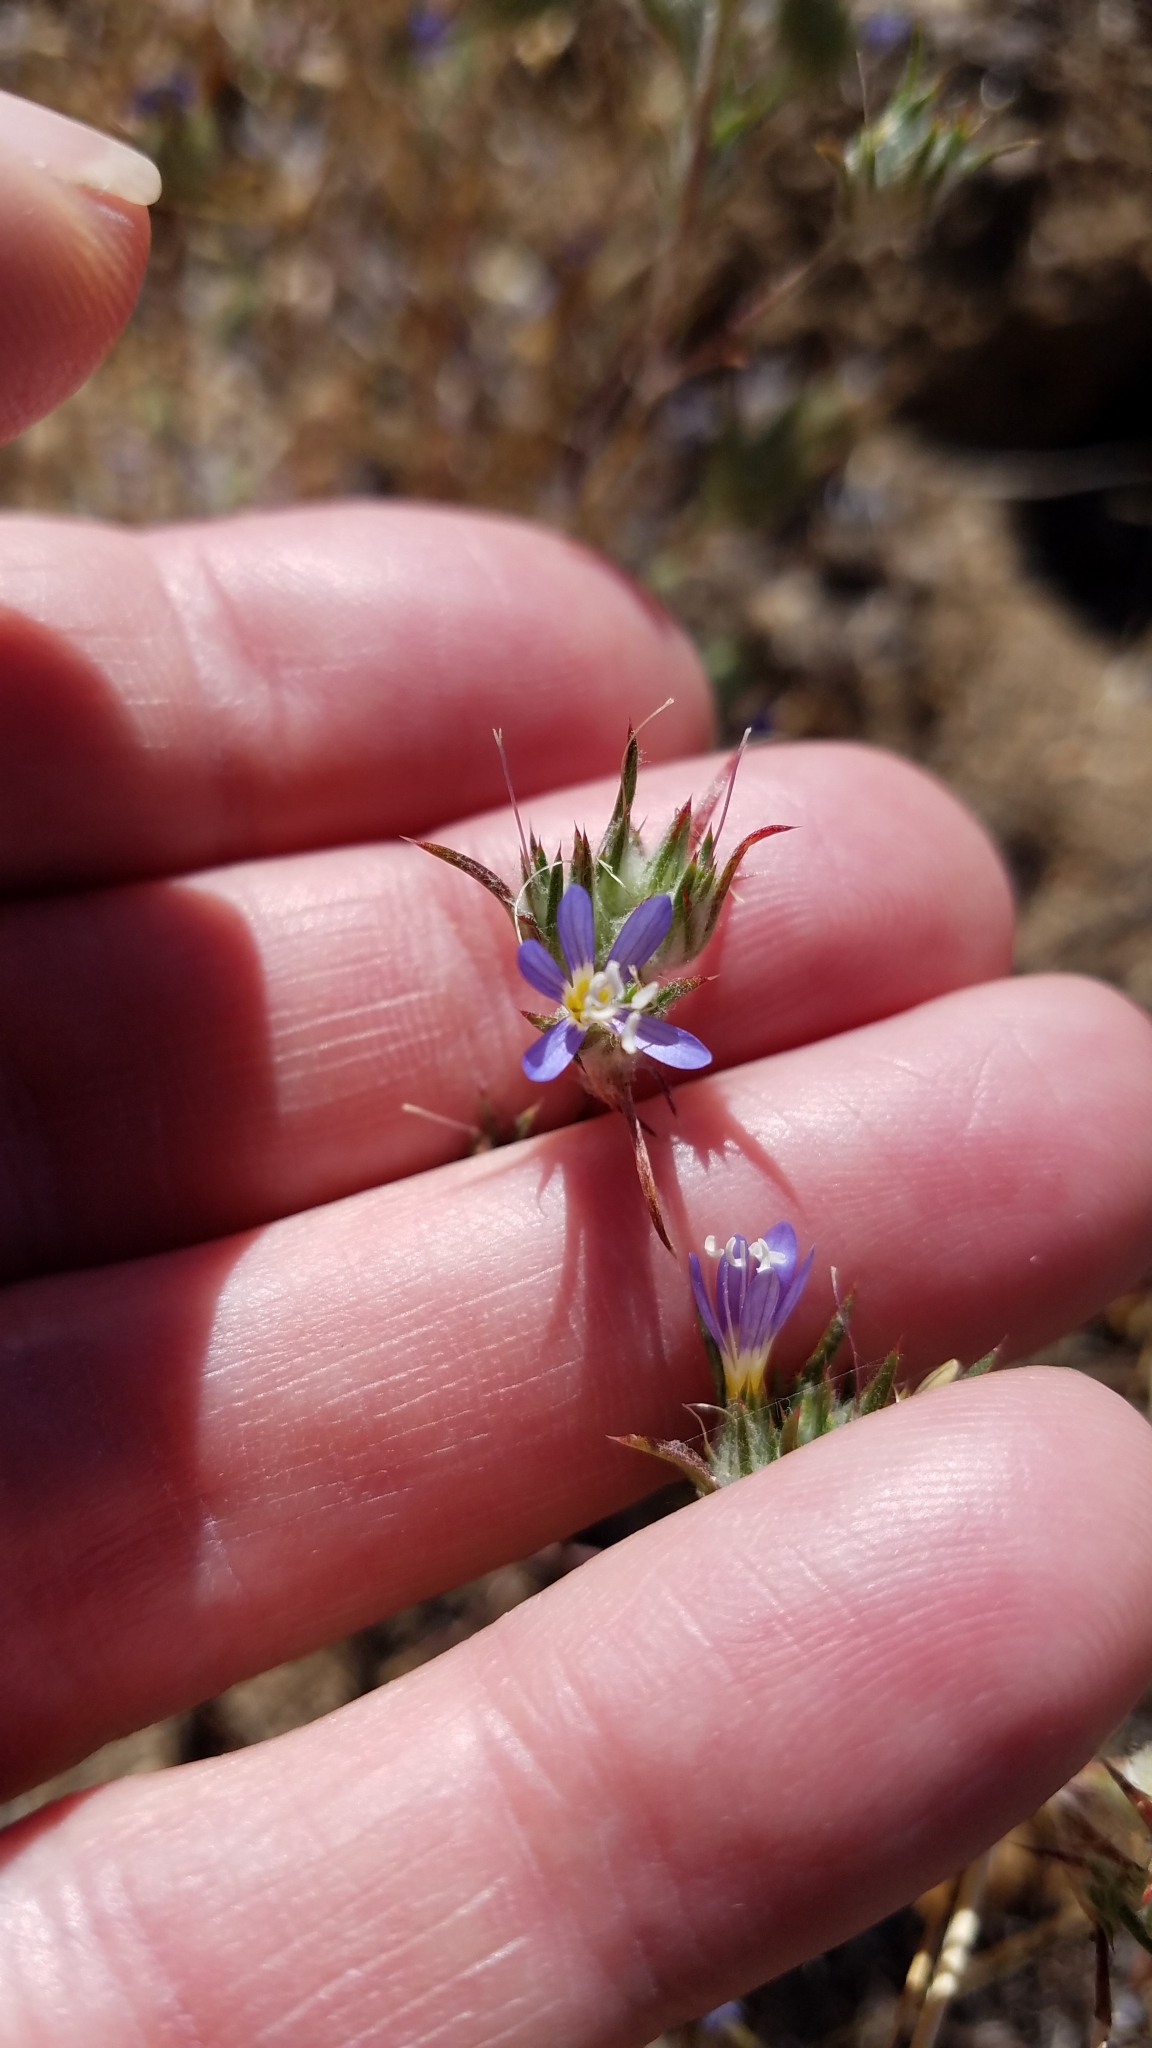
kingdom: Plantae
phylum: Tracheophyta
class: Magnoliopsida
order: Ericales
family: Polemoniaceae
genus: Eriastrum
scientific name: Eriastrum virgatum
